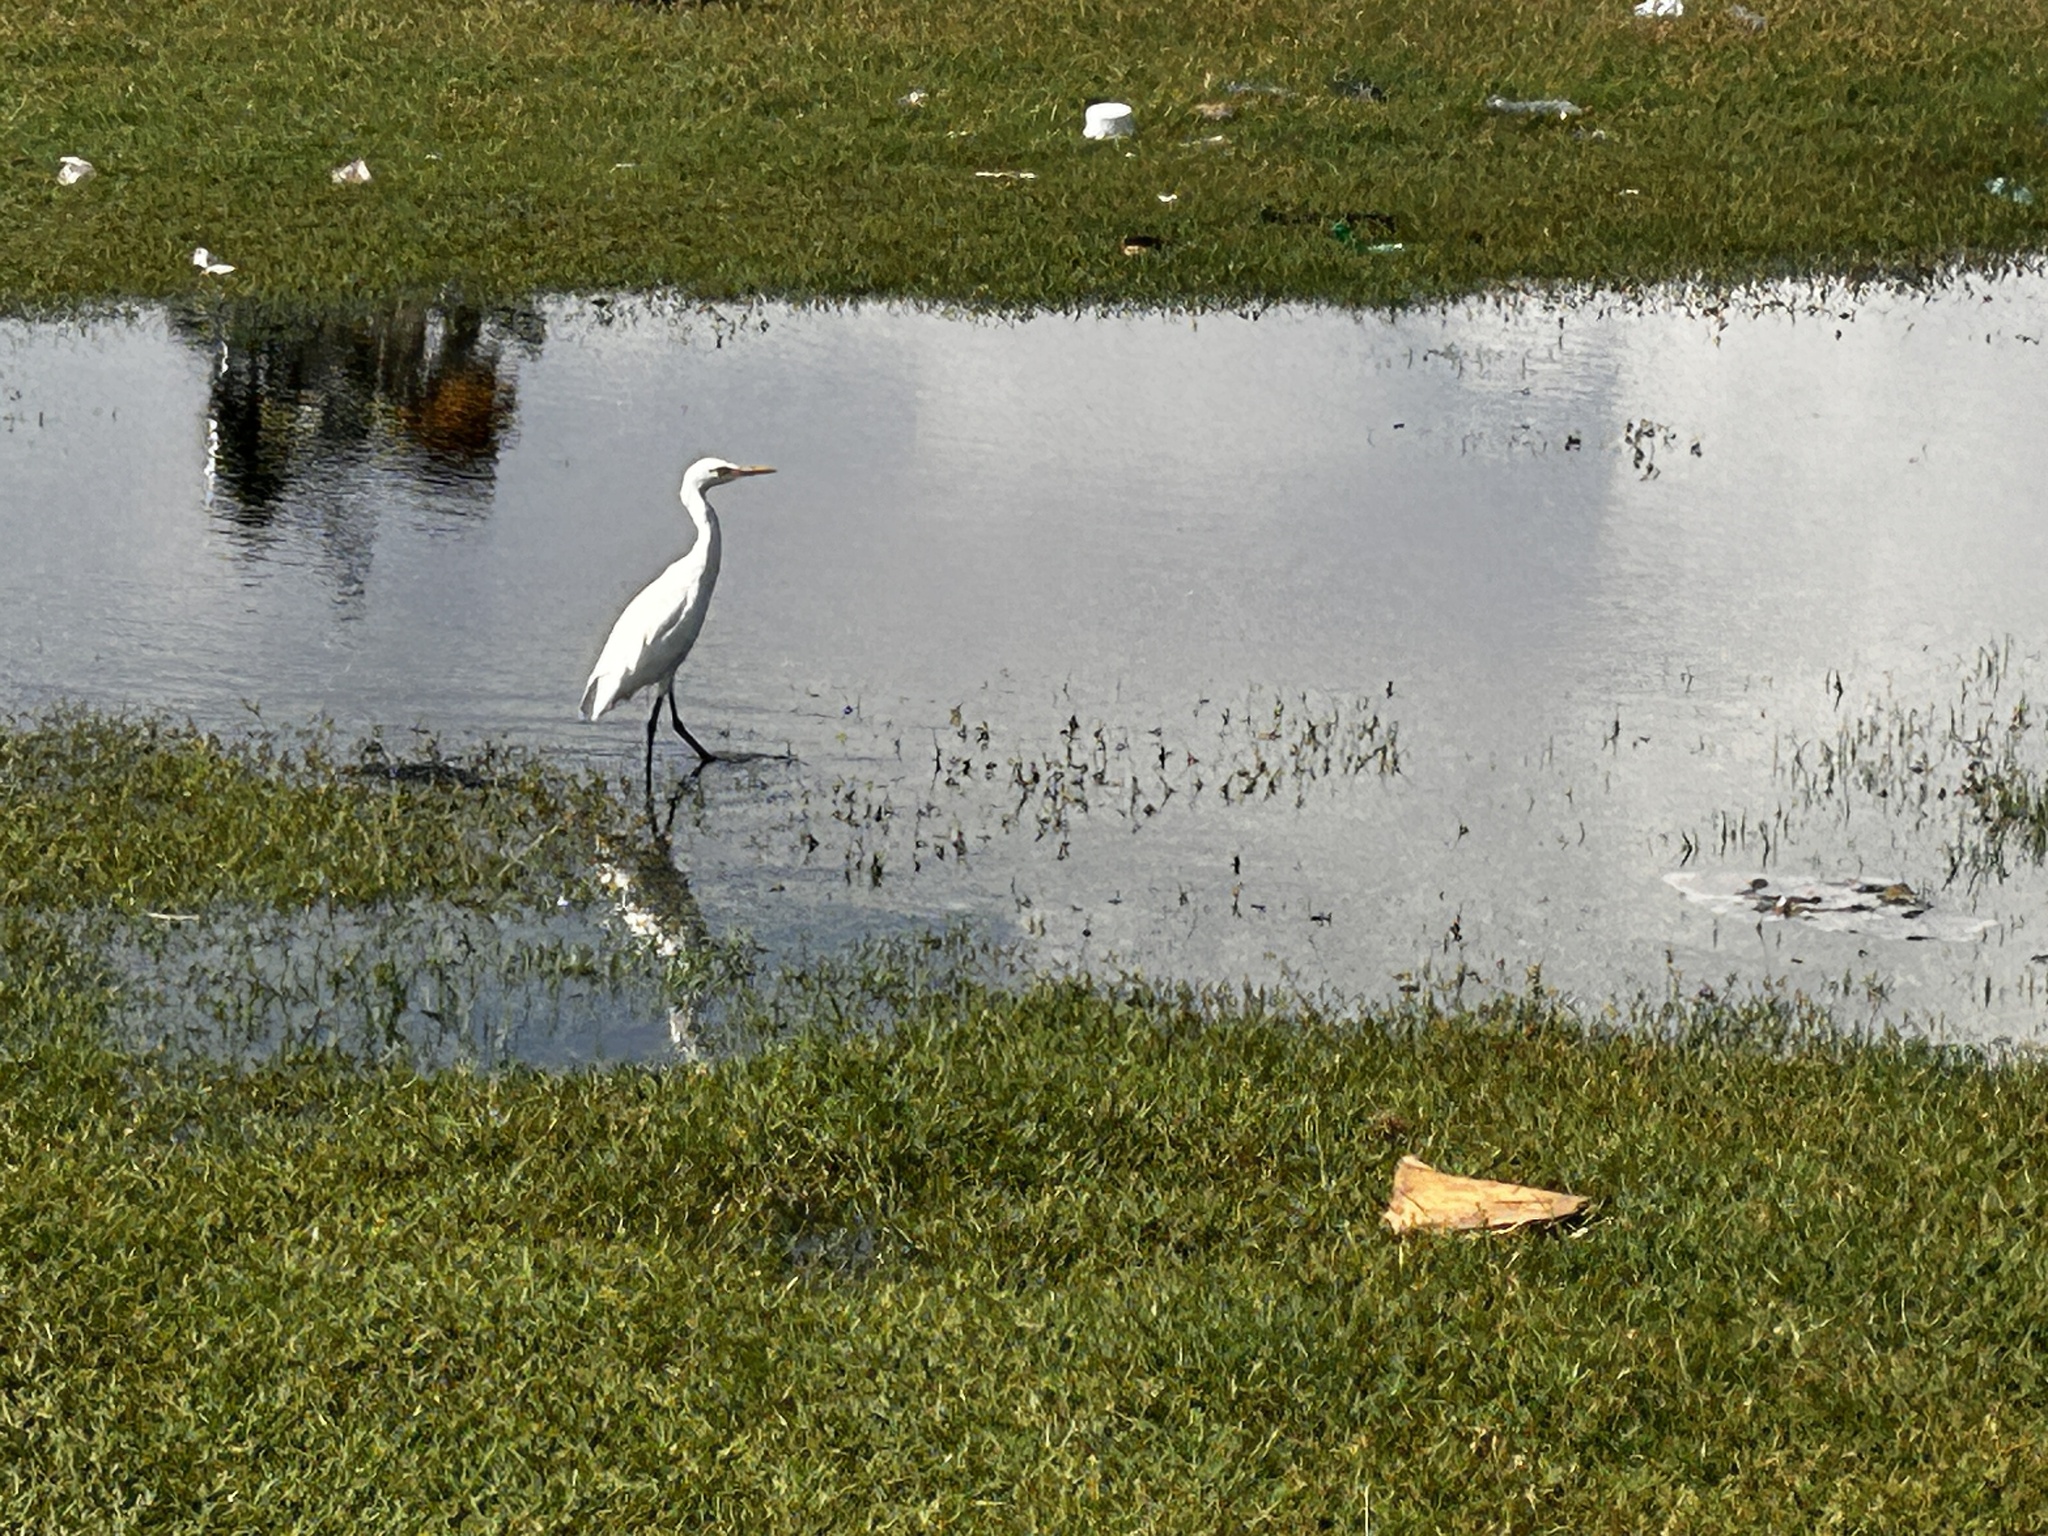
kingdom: Animalia
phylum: Chordata
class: Aves
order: Pelecaniformes
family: Ardeidae
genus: Bubulcus
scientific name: Bubulcus coromandus
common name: Eastern cattle egret
